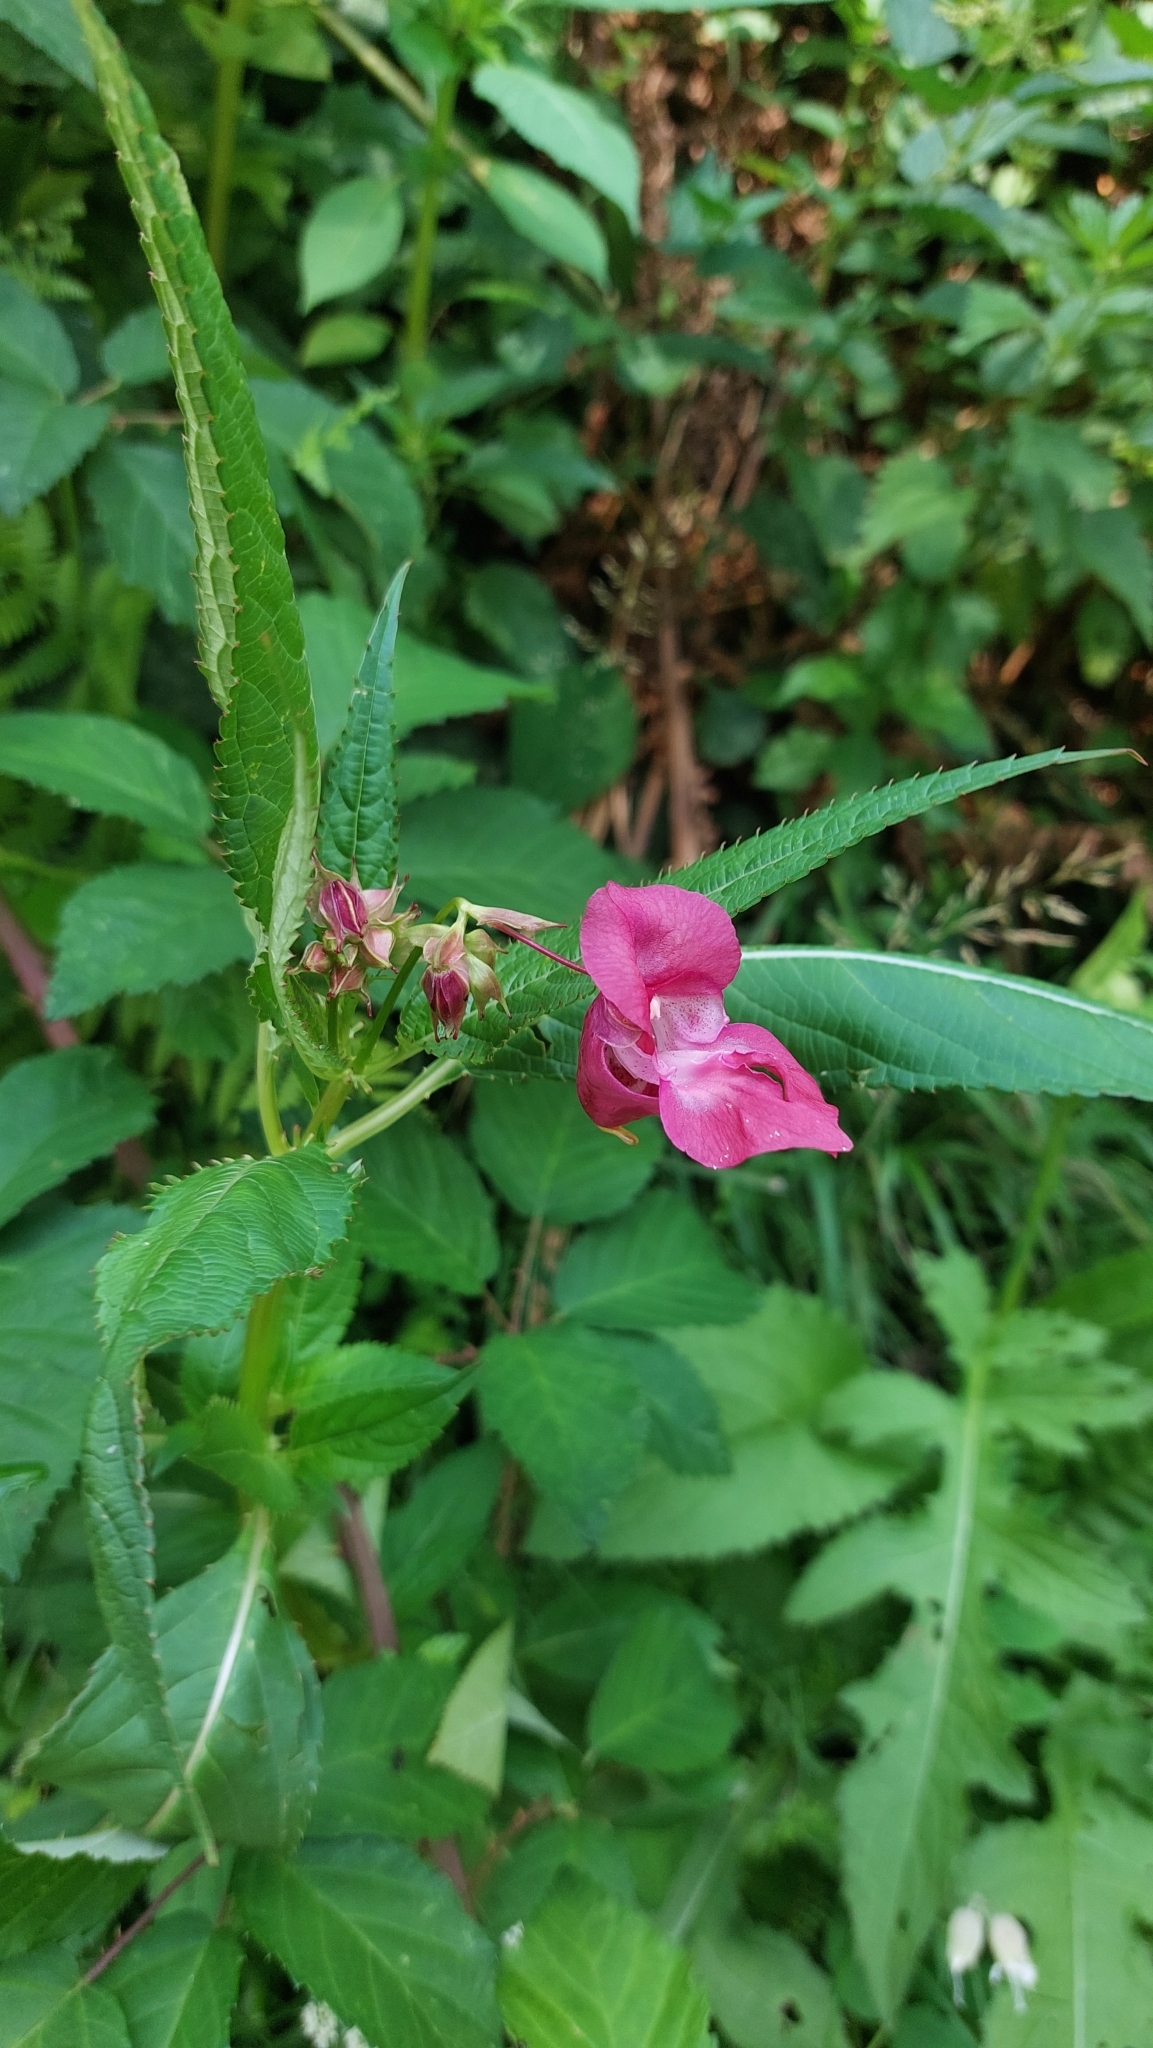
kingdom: Plantae
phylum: Tracheophyta
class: Magnoliopsida
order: Ericales
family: Balsaminaceae
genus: Impatiens
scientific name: Impatiens glandulifera
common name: Himalayan balsam
